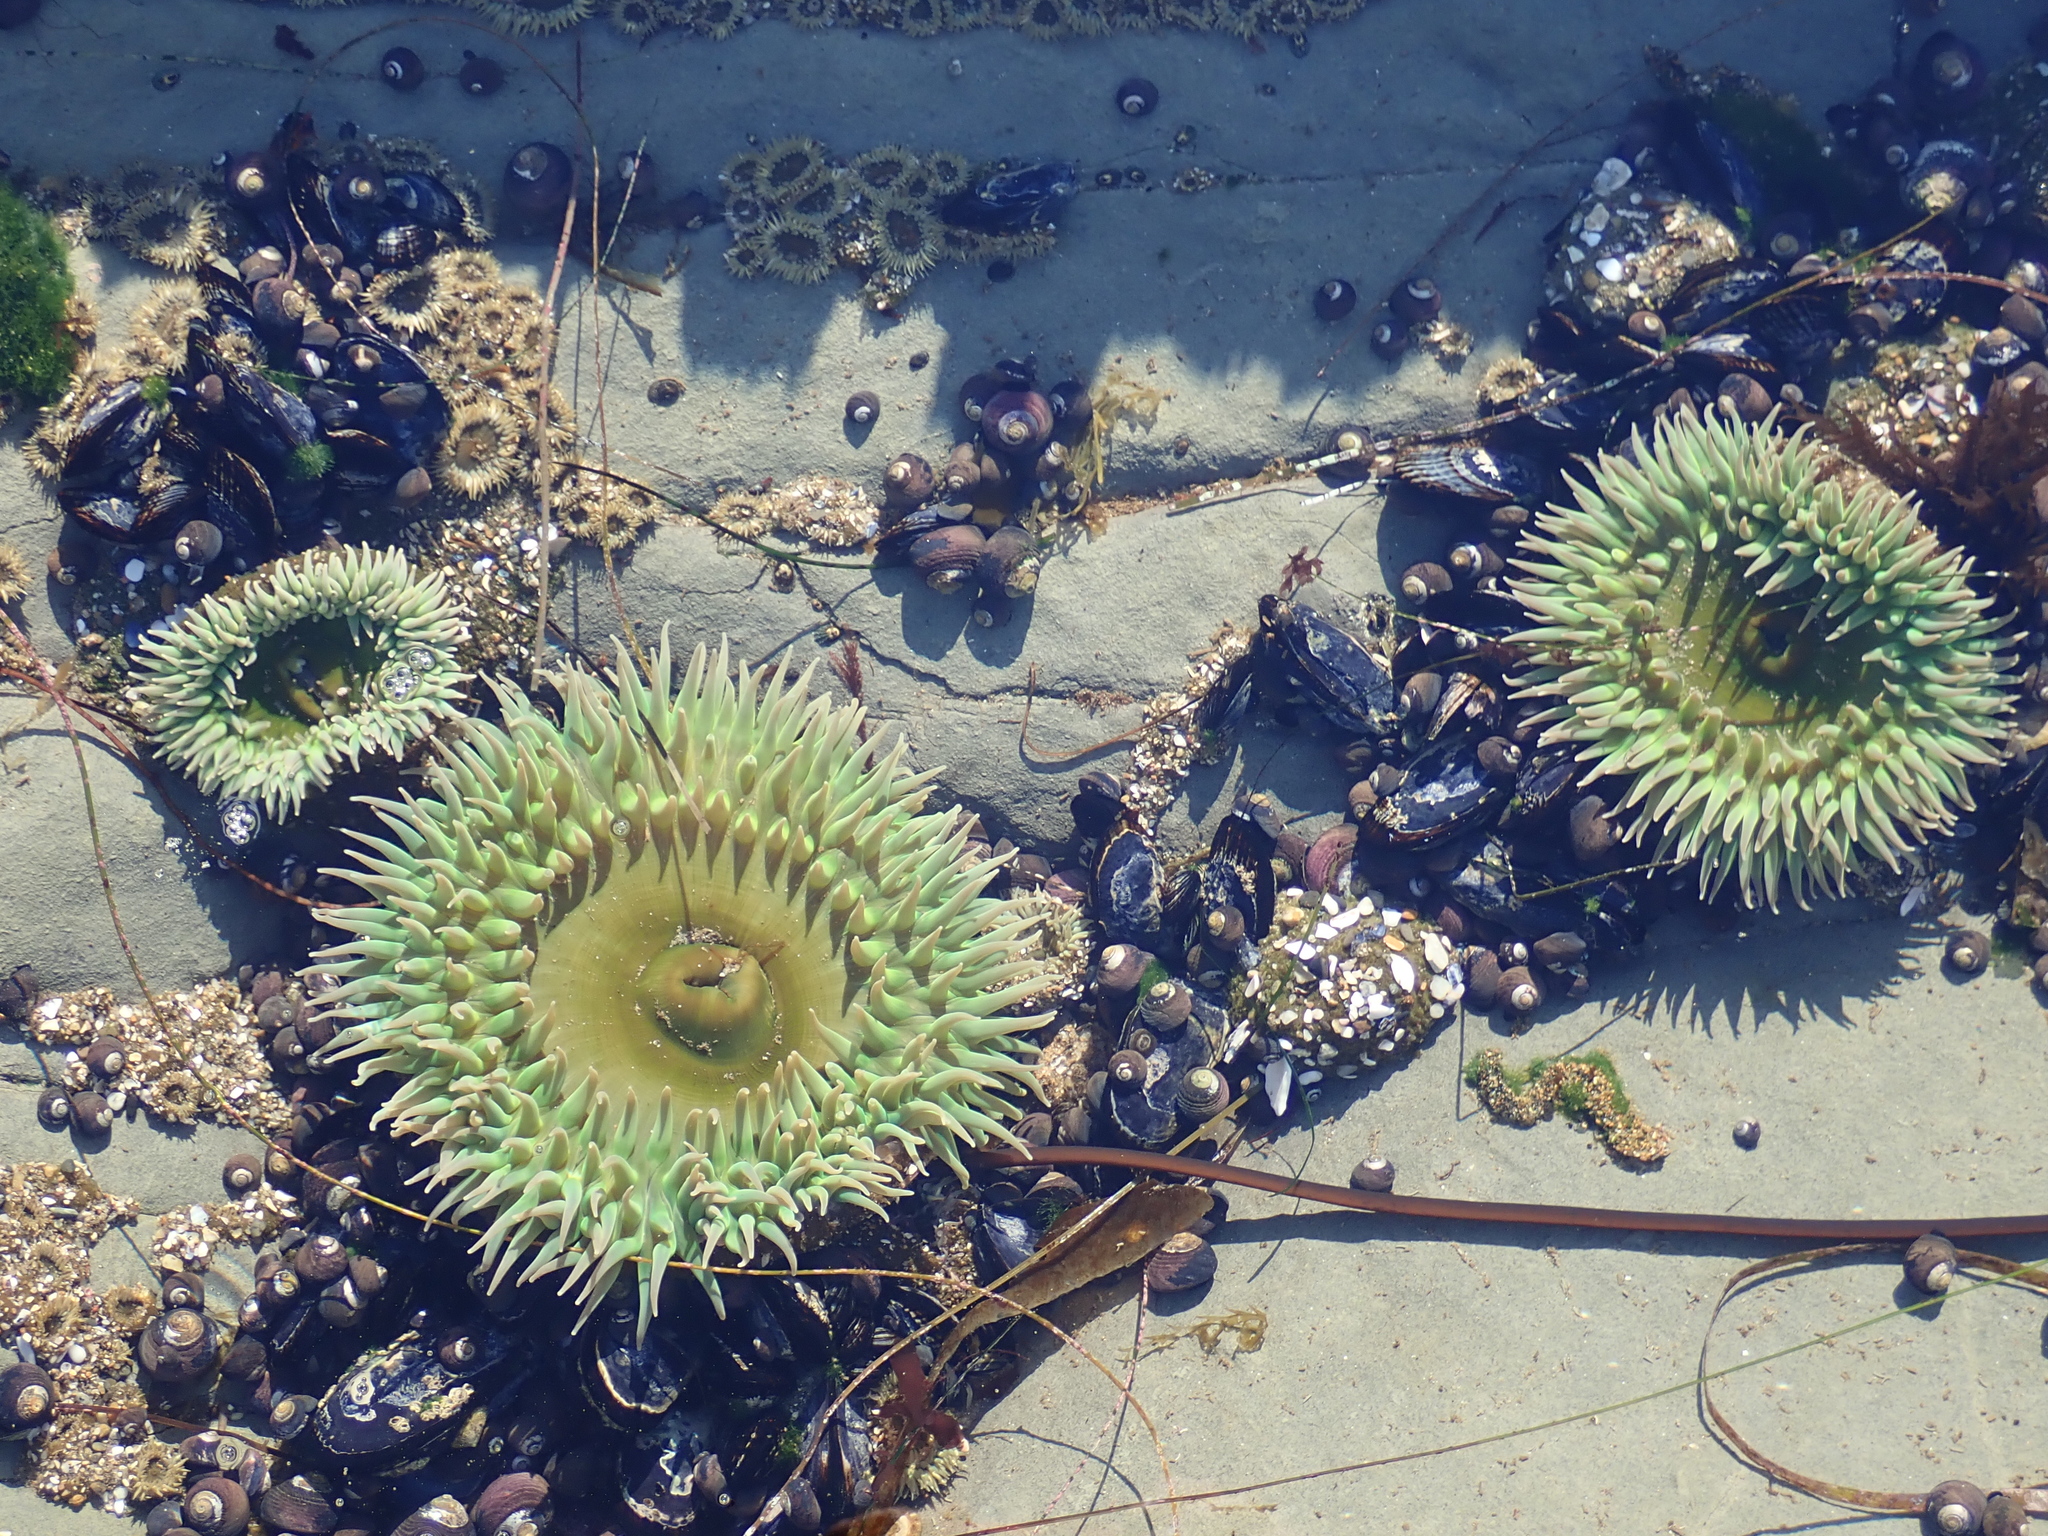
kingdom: Animalia
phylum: Cnidaria
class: Anthozoa
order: Actiniaria
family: Actiniidae
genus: Anthopleura
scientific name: Anthopleura xanthogrammica
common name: Giant green anemone
